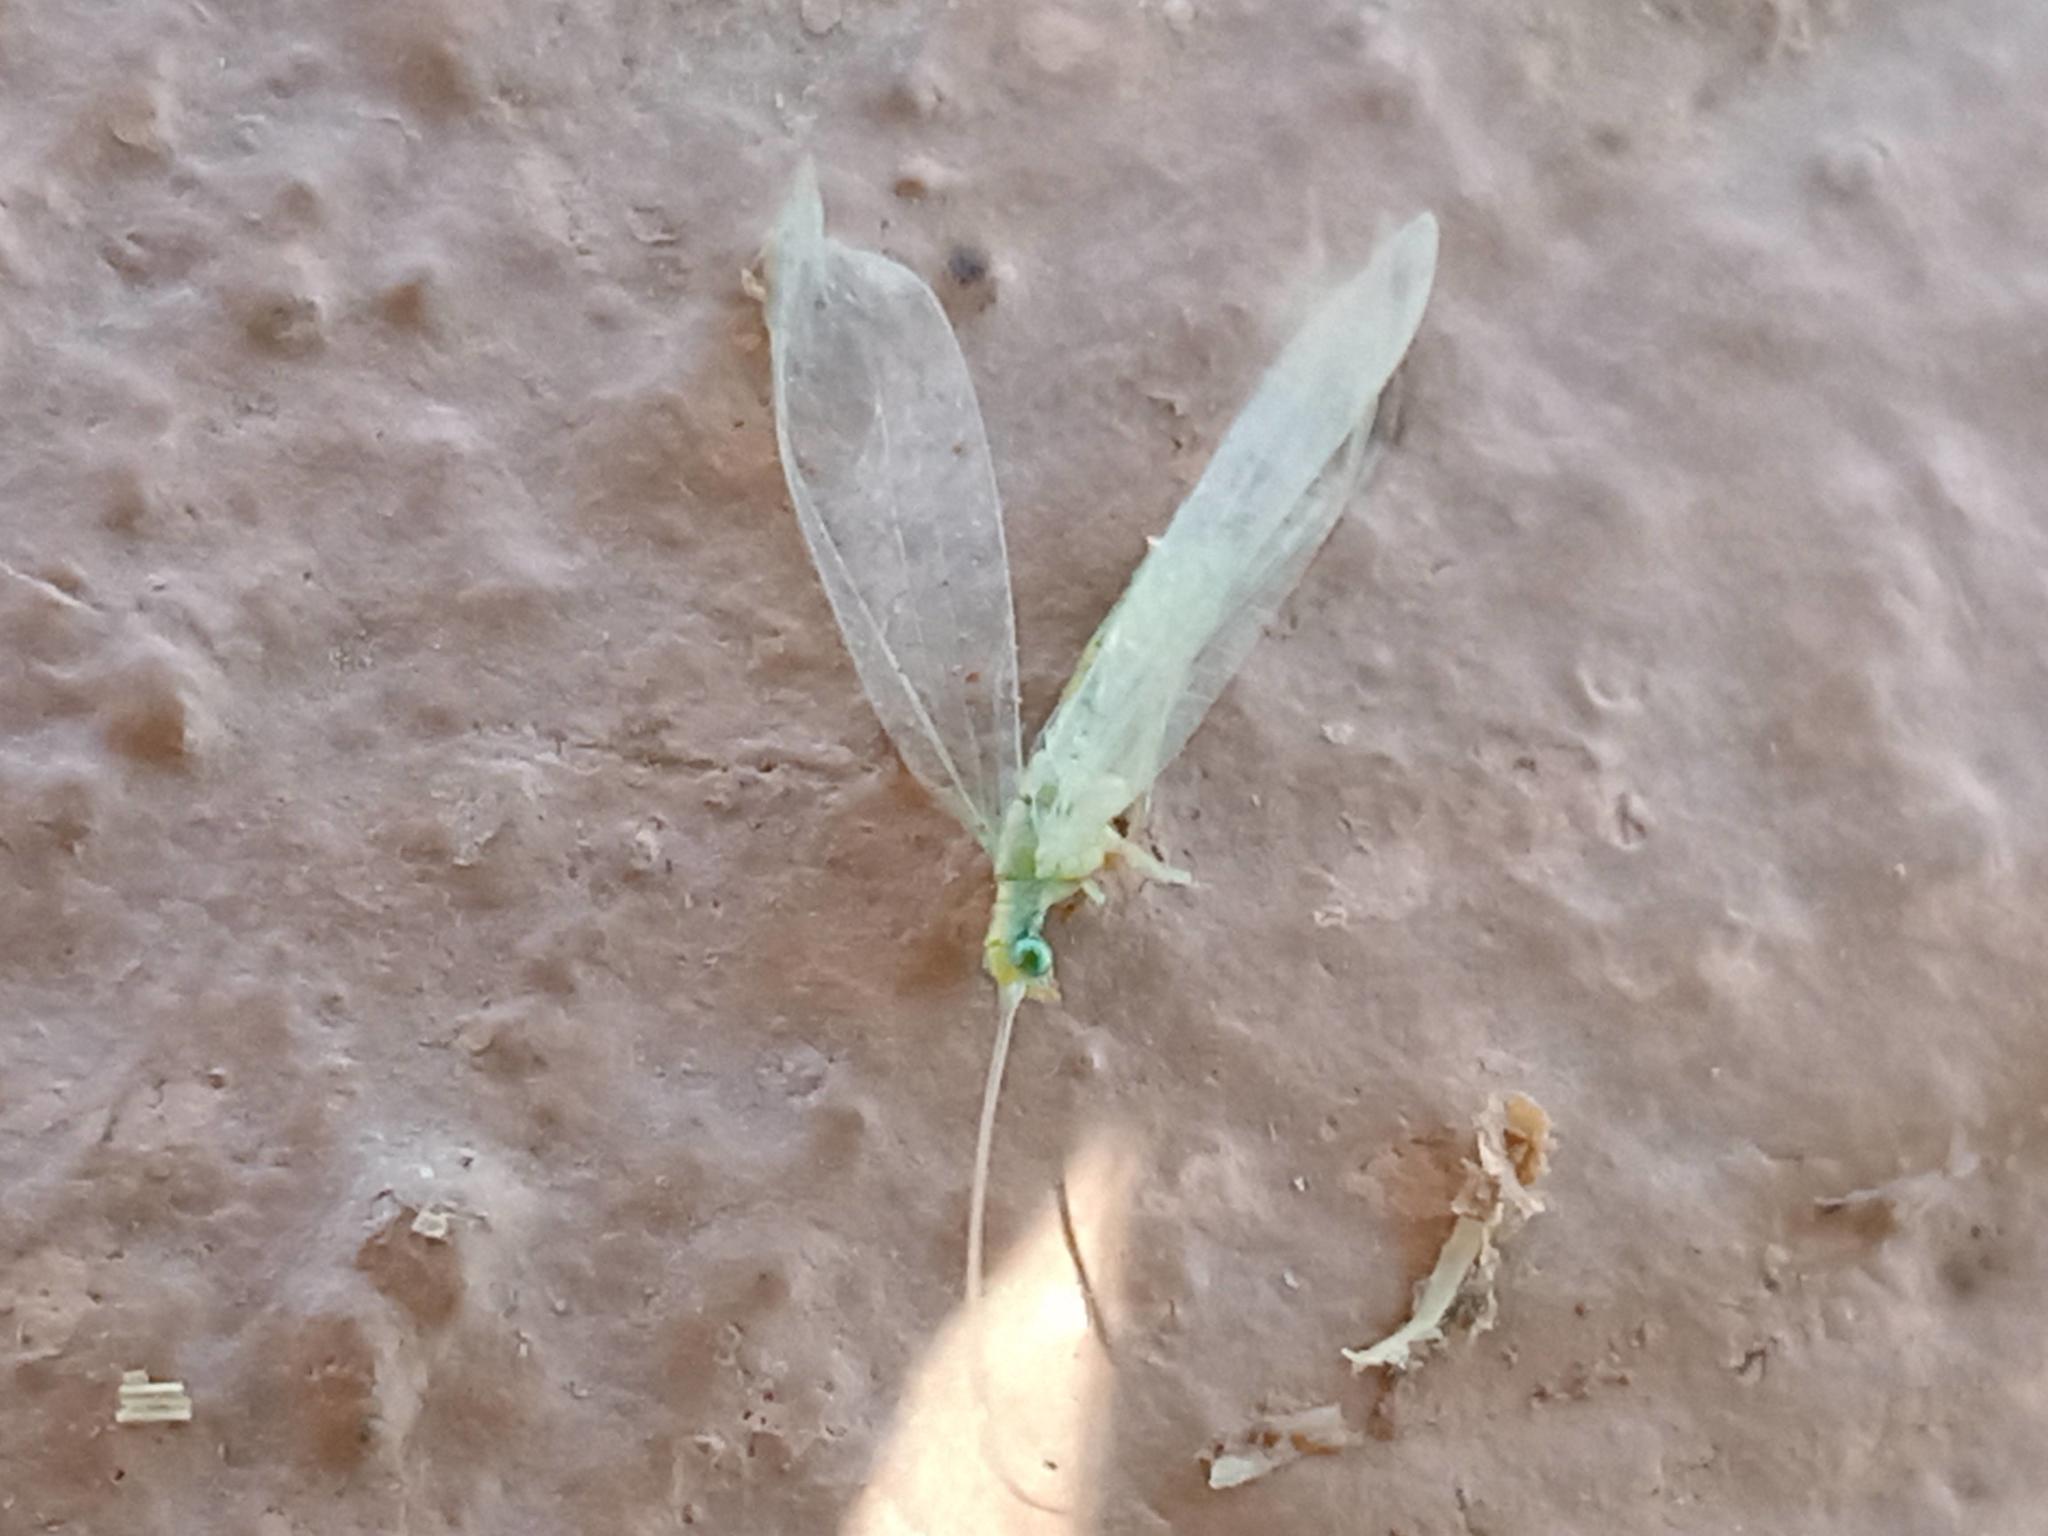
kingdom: Animalia
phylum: Arthropoda
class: Insecta
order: Neuroptera
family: Chrysopidae
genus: Chrysoperla
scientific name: Chrysoperla mutata
